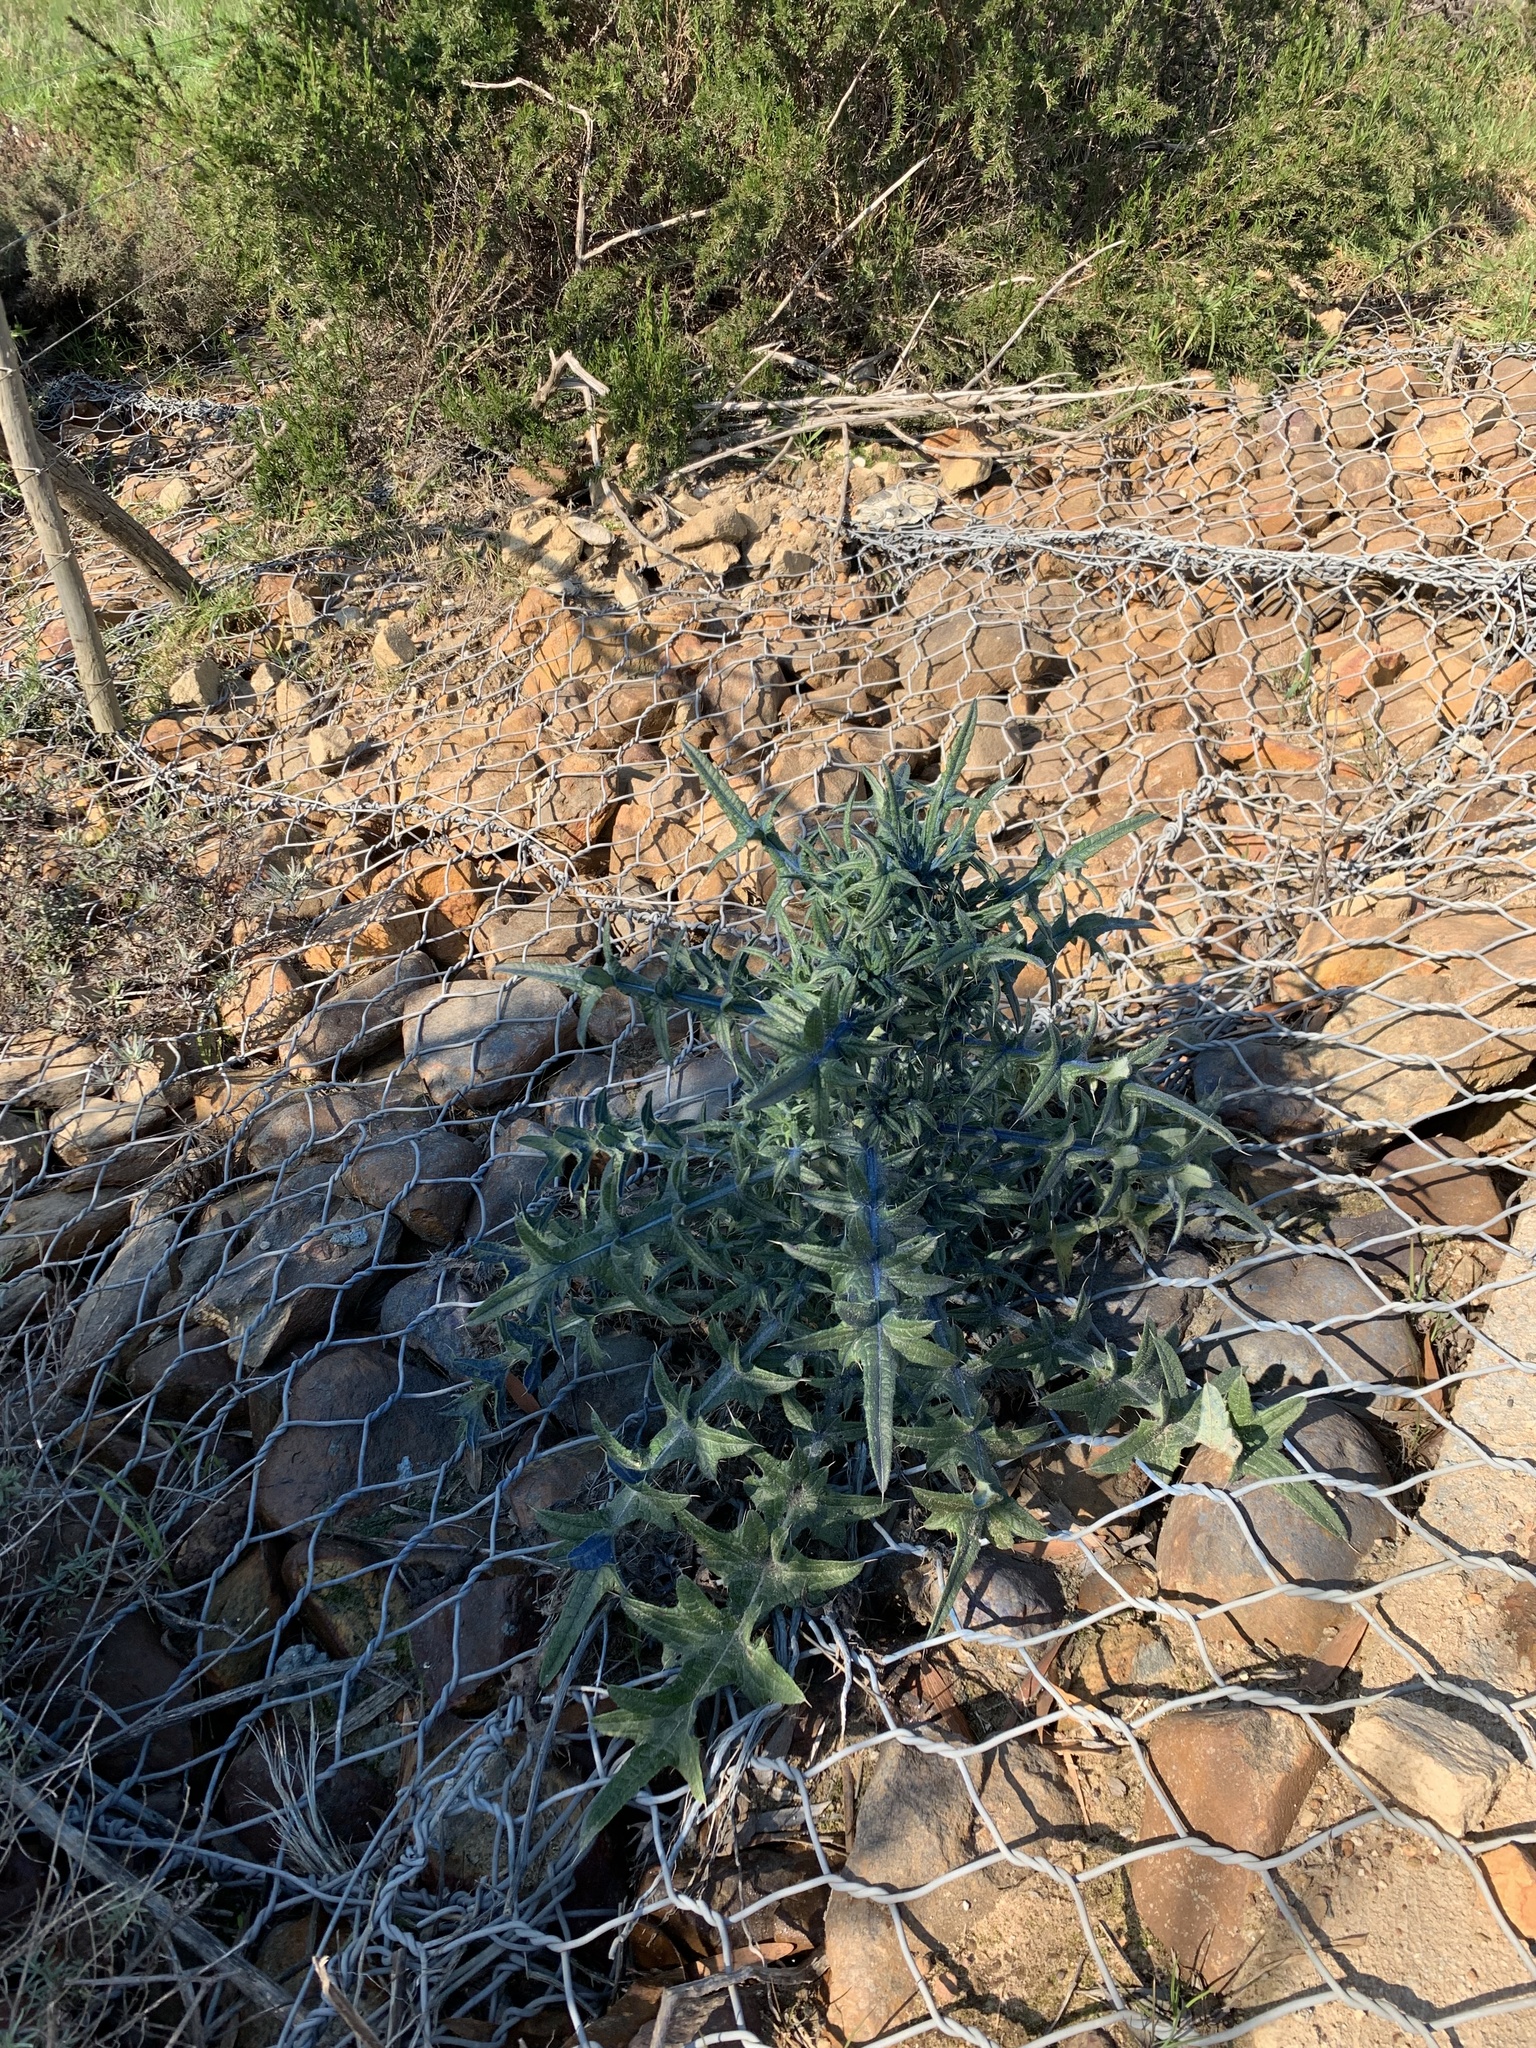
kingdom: Plantae
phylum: Tracheophyta
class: Magnoliopsida
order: Asterales
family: Asteraceae
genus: Cirsium
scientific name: Cirsium vulgare
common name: Bull thistle
